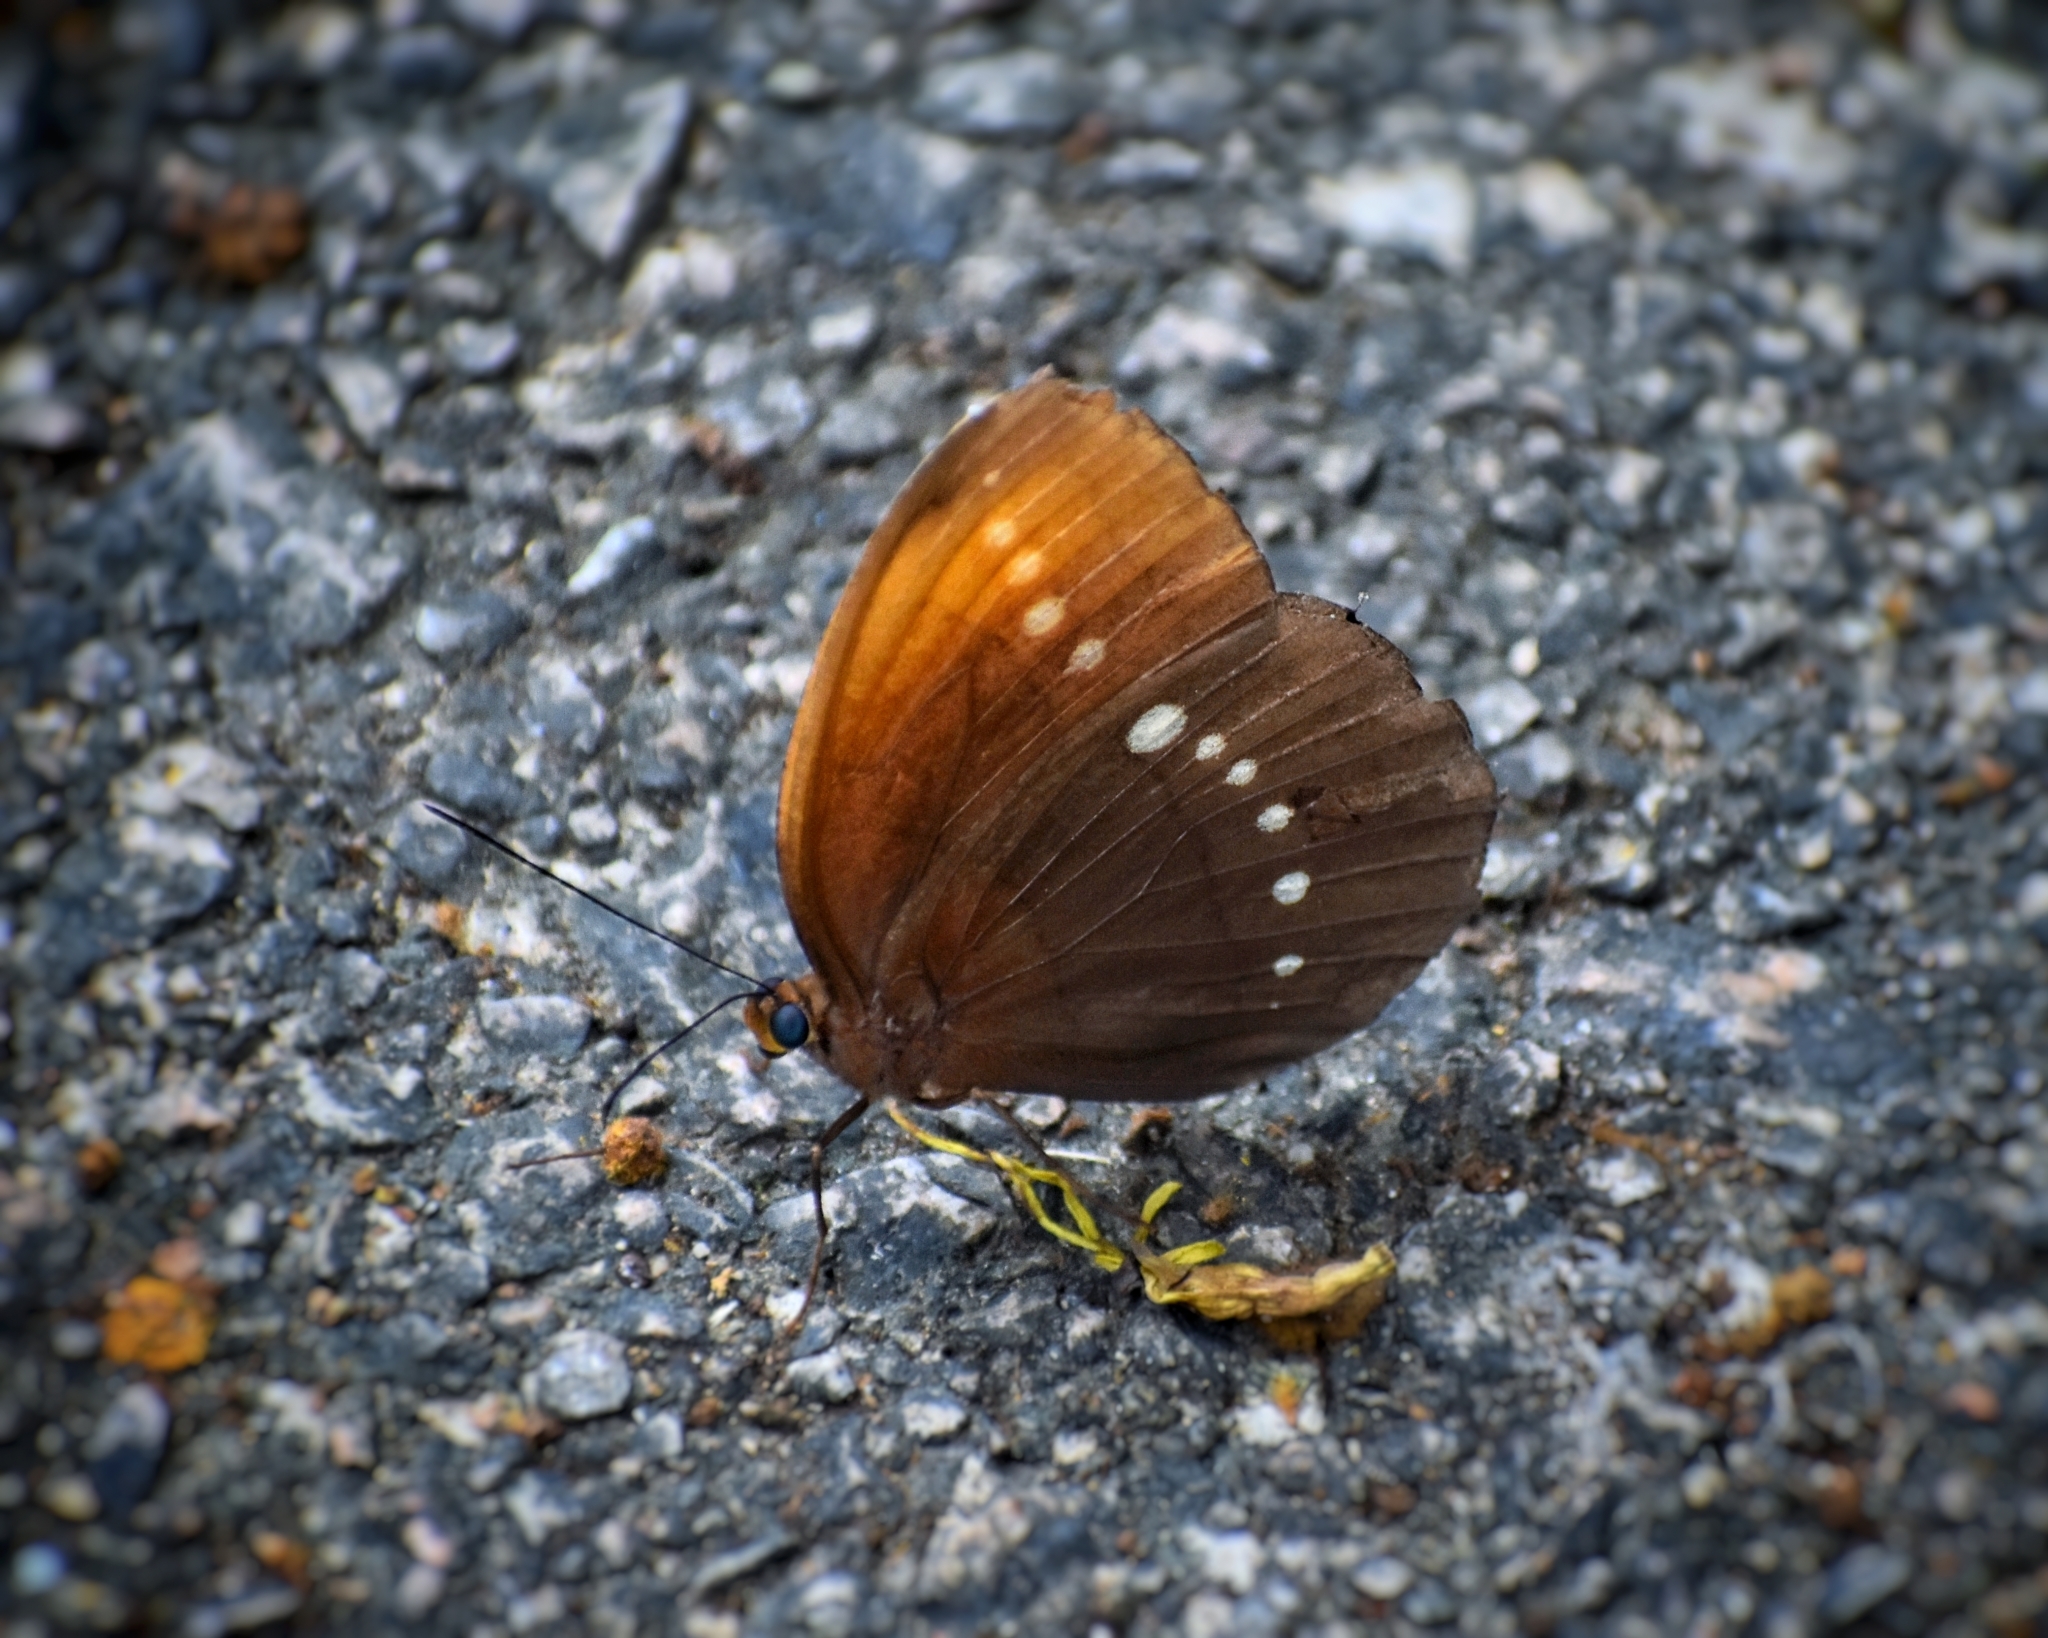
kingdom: Animalia
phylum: Arthropoda
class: Insecta
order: Lepidoptera
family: Nymphalidae
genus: Faunis
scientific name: Faunis eumeus
